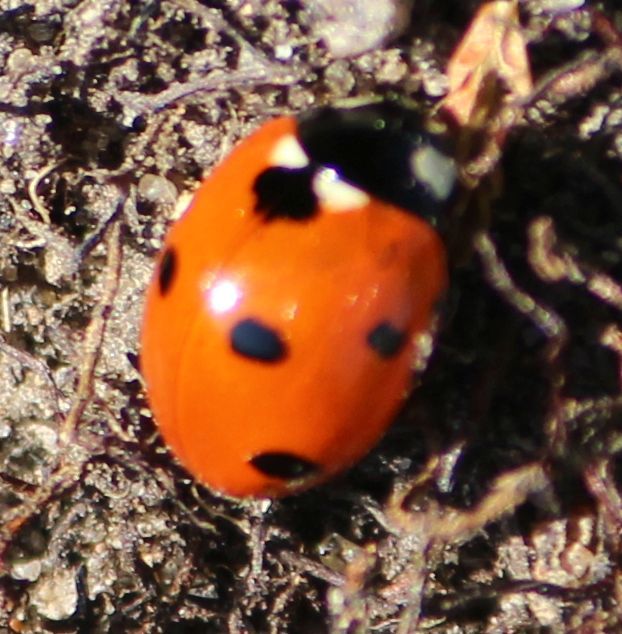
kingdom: Animalia
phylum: Arthropoda
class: Insecta
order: Coleoptera
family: Coccinellidae
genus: Coccinella
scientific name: Coccinella septempunctata
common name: Sevenspotted lady beetle
